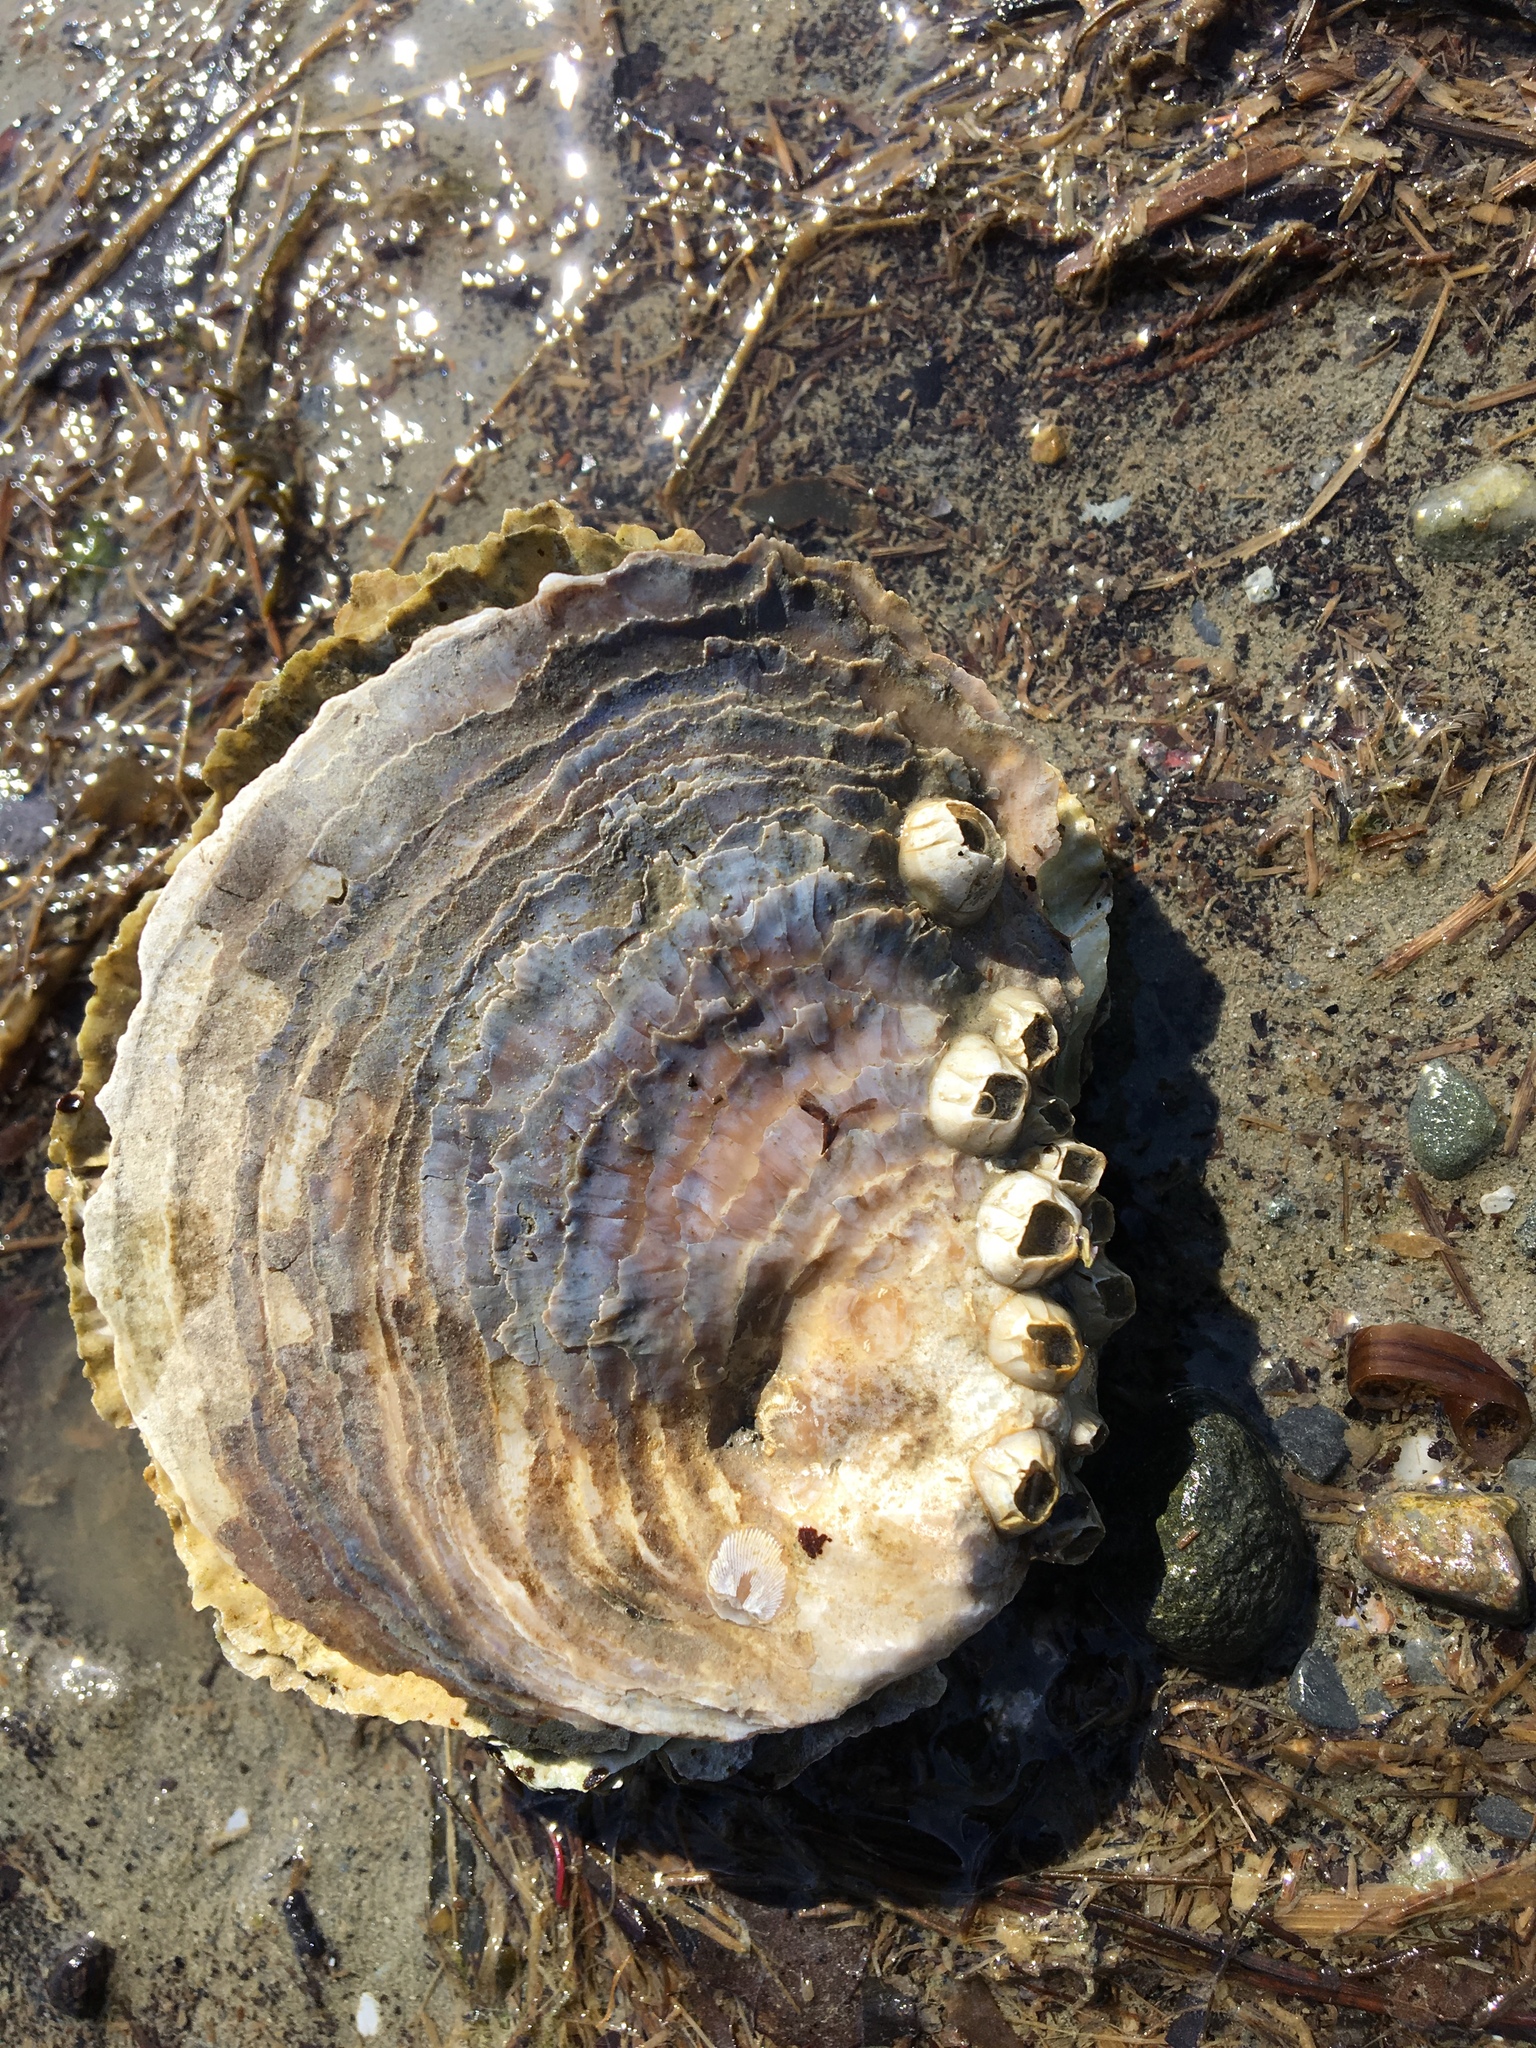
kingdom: Animalia
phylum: Mollusca
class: Bivalvia
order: Ostreida
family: Ostreidae
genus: Ostrea
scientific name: Ostrea edulis
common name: Flat oyster
